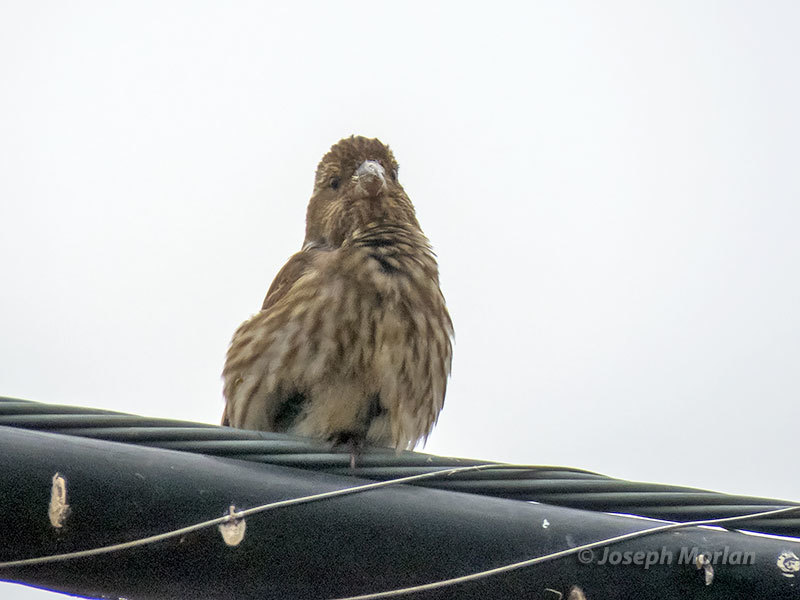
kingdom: Animalia
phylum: Chordata
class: Aves
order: Passeriformes
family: Fringillidae
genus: Haemorhous
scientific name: Haemorhous purpureus
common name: Purple finch
